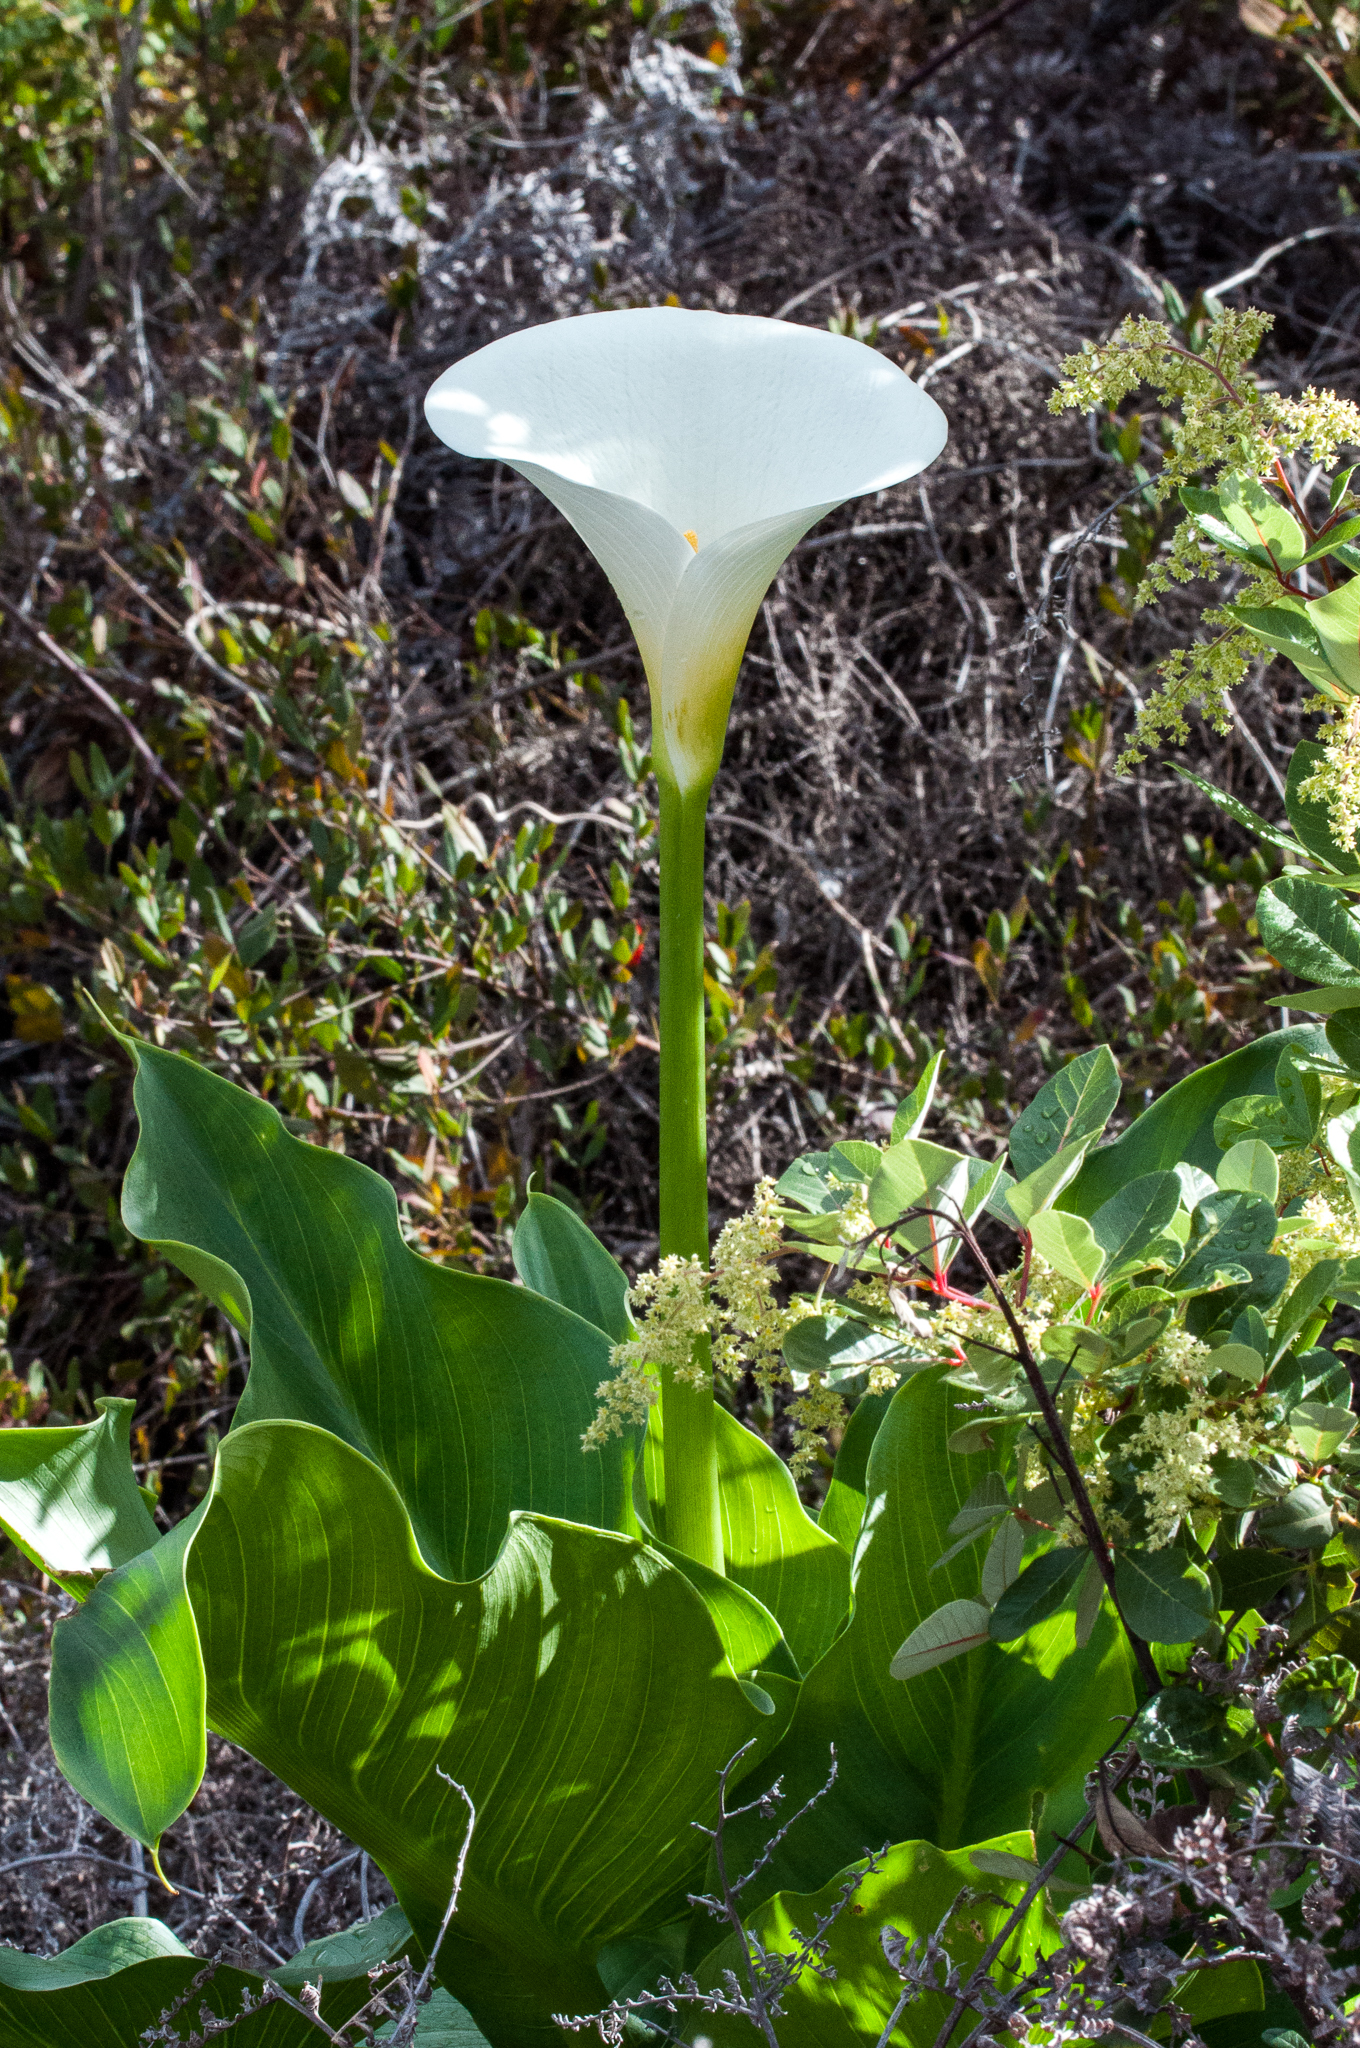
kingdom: Plantae
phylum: Tracheophyta
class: Liliopsida
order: Alismatales
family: Araceae
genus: Zantedeschia
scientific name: Zantedeschia aethiopica
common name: Altar-lily
